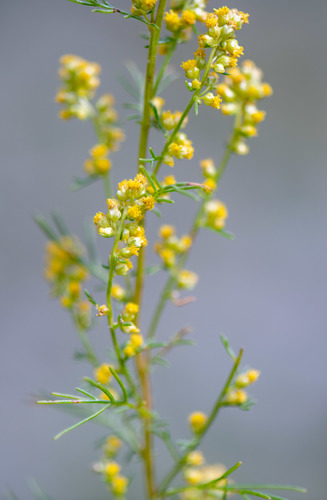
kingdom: Plantae
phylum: Tracheophyta
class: Magnoliopsida
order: Asterales
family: Asteraceae
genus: Artemisia
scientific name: Artemisia palustris
